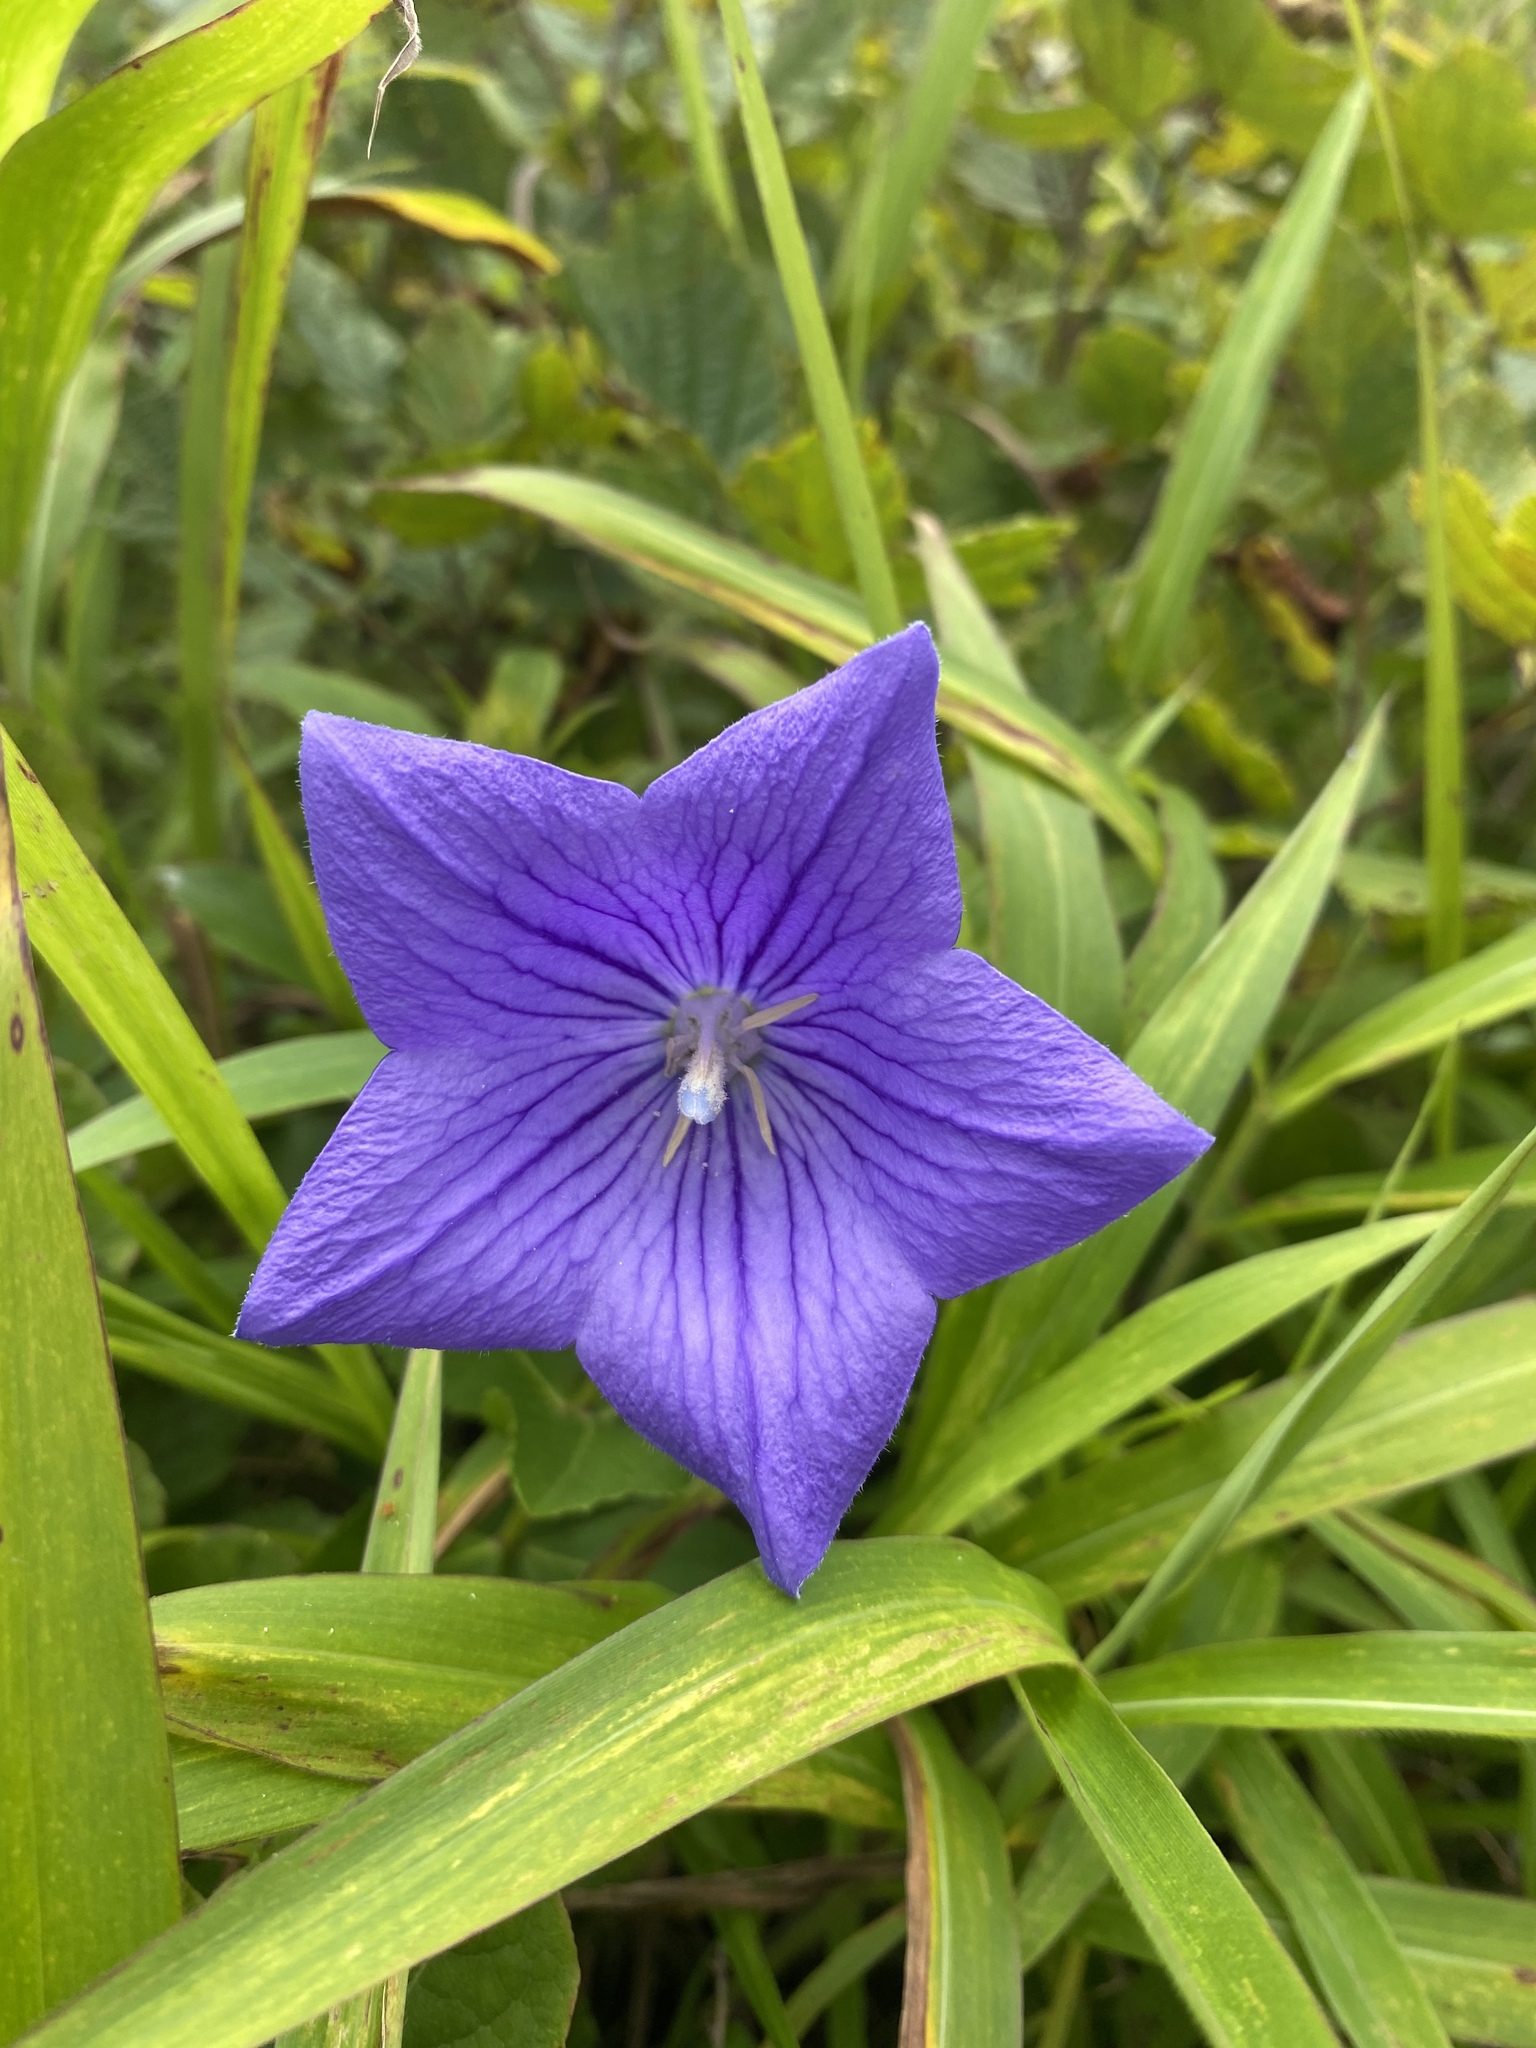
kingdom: Plantae
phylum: Tracheophyta
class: Magnoliopsida
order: Asterales
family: Campanulaceae
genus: Platycodon
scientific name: Platycodon grandiflorus
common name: Balloon-flower
